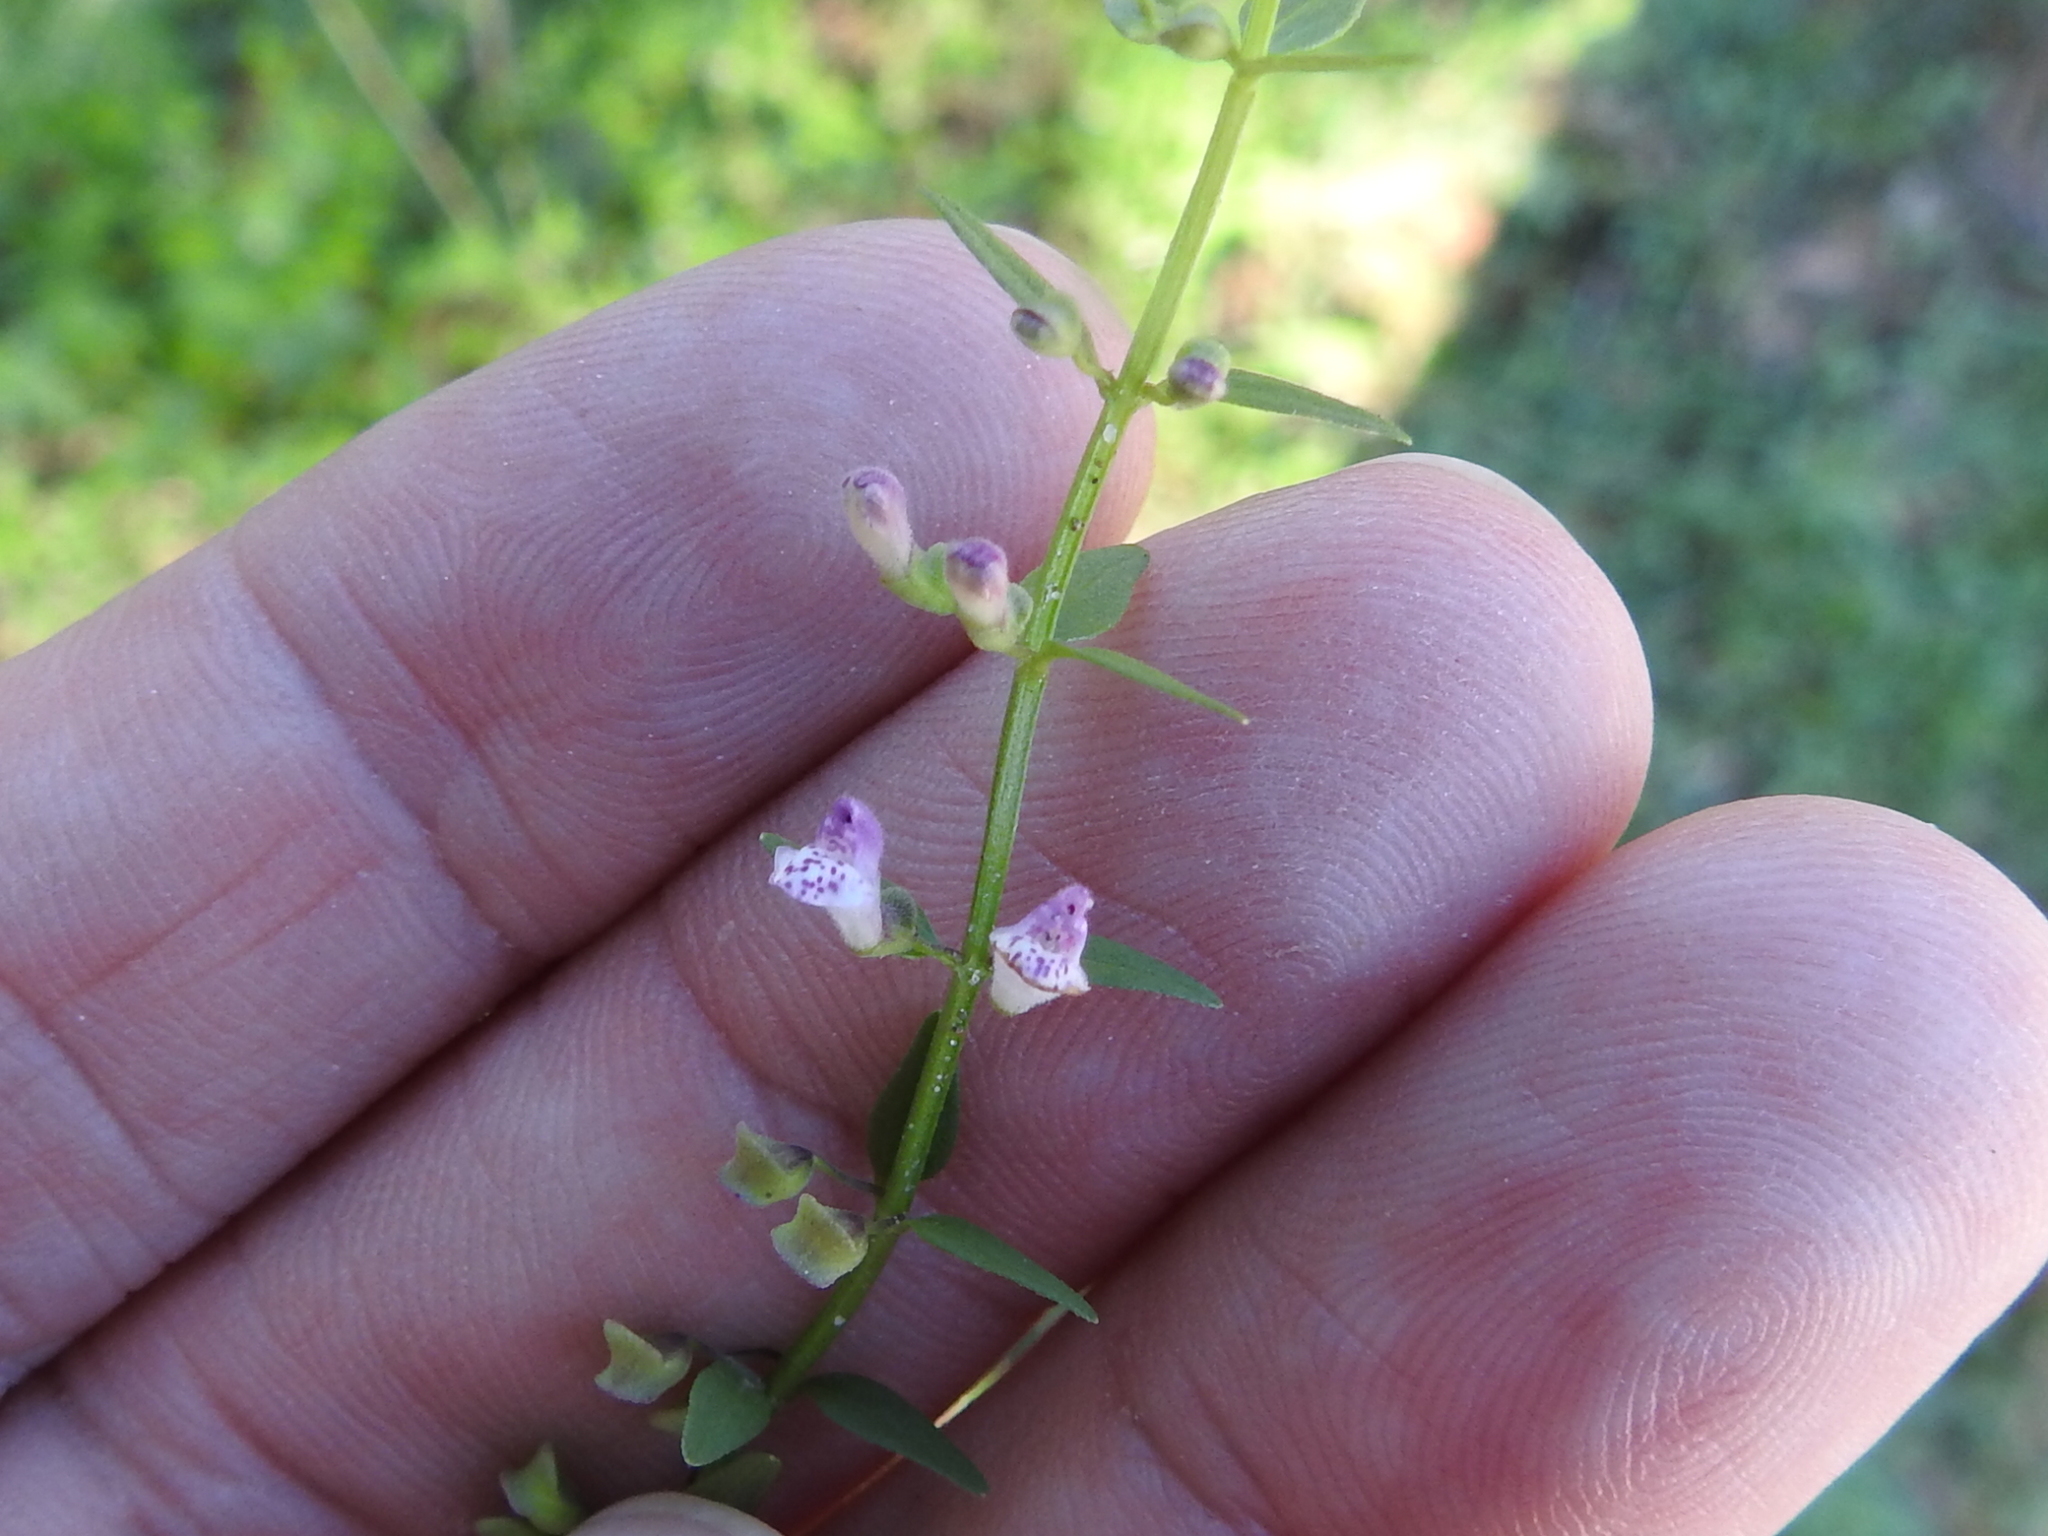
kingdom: Plantae
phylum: Tracheophyta
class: Magnoliopsida
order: Lamiales
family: Lamiaceae
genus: Scutellaria
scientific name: Scutellaria racemosa
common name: South american skullcap
